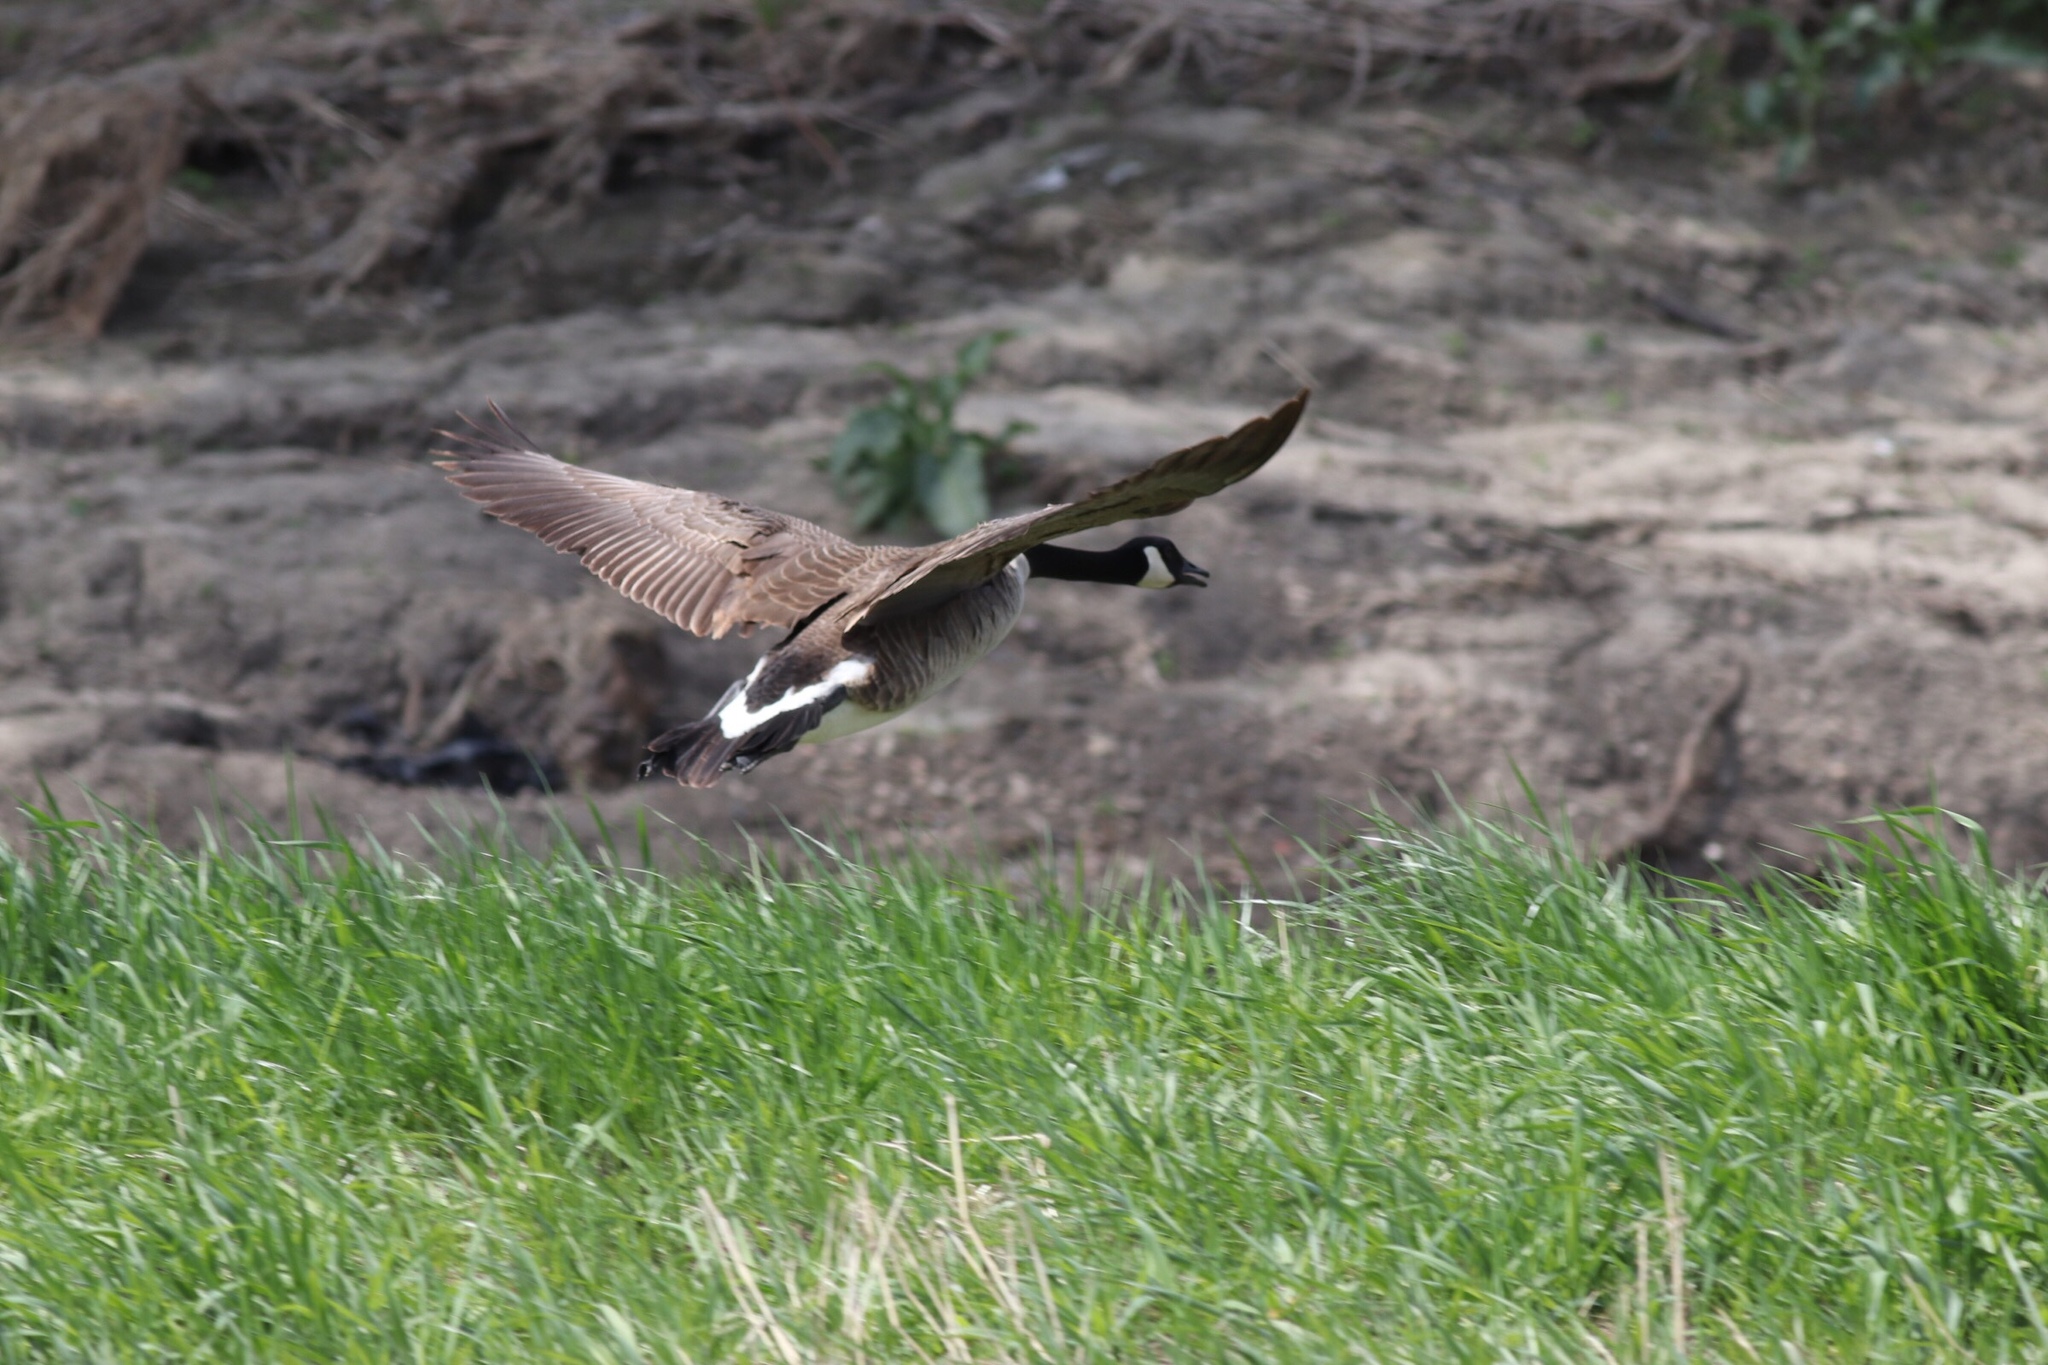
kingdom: Animalia
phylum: Chordata
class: Aves
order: Anseriformes
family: Anatidae
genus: Branta
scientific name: Branta canadensis
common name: Canada goose
